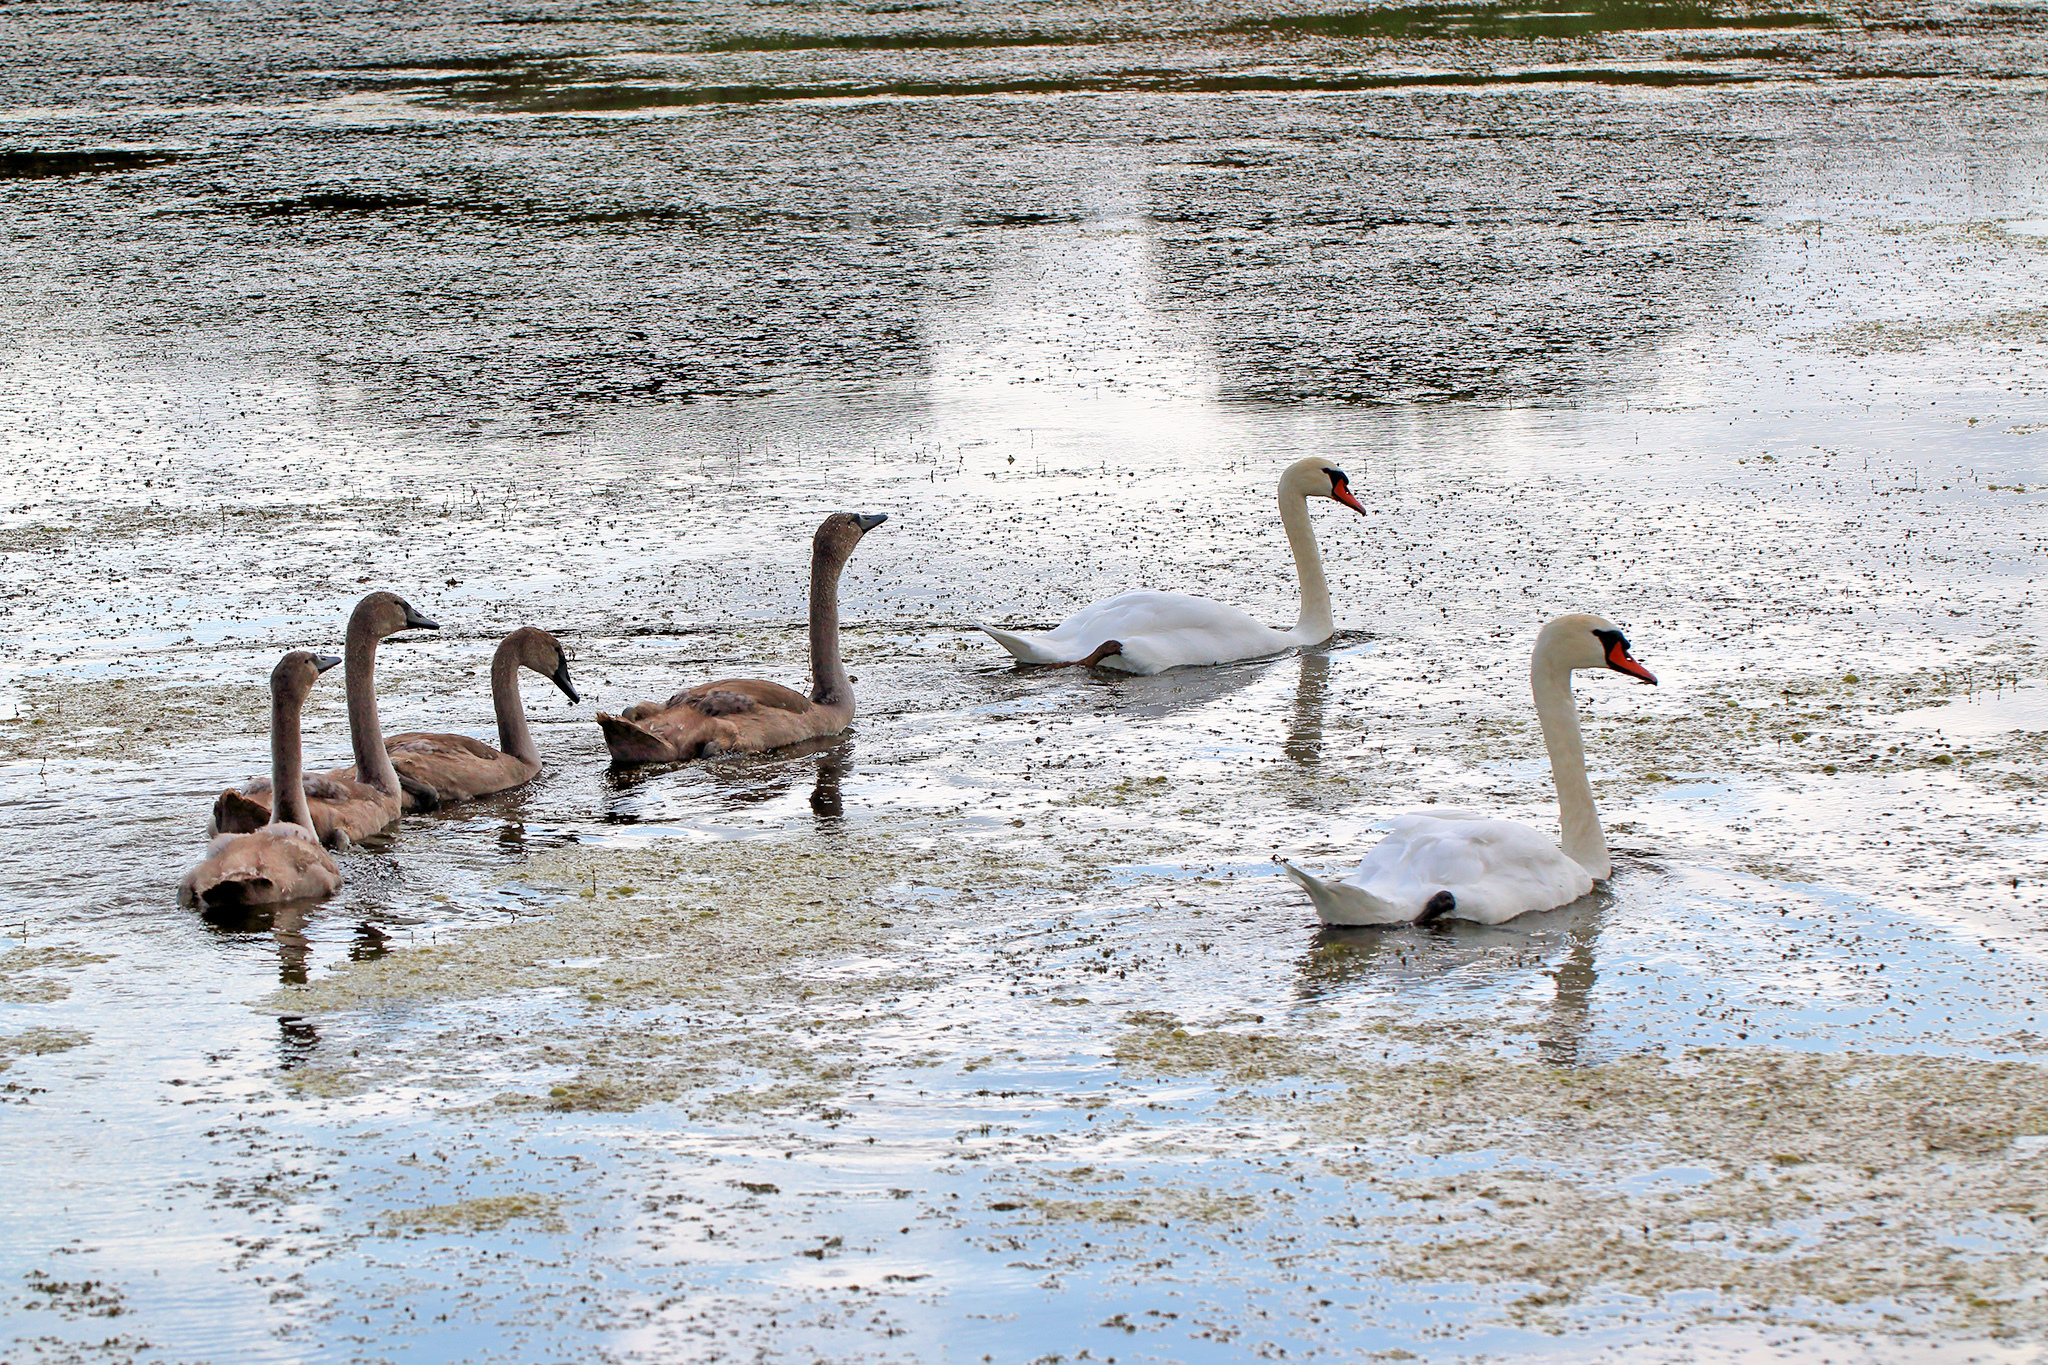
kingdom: Animalia
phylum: Chordata
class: Aves
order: Anseriformes
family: Anatidae
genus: Cygnus
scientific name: Cygnus olor
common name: Mute swan
